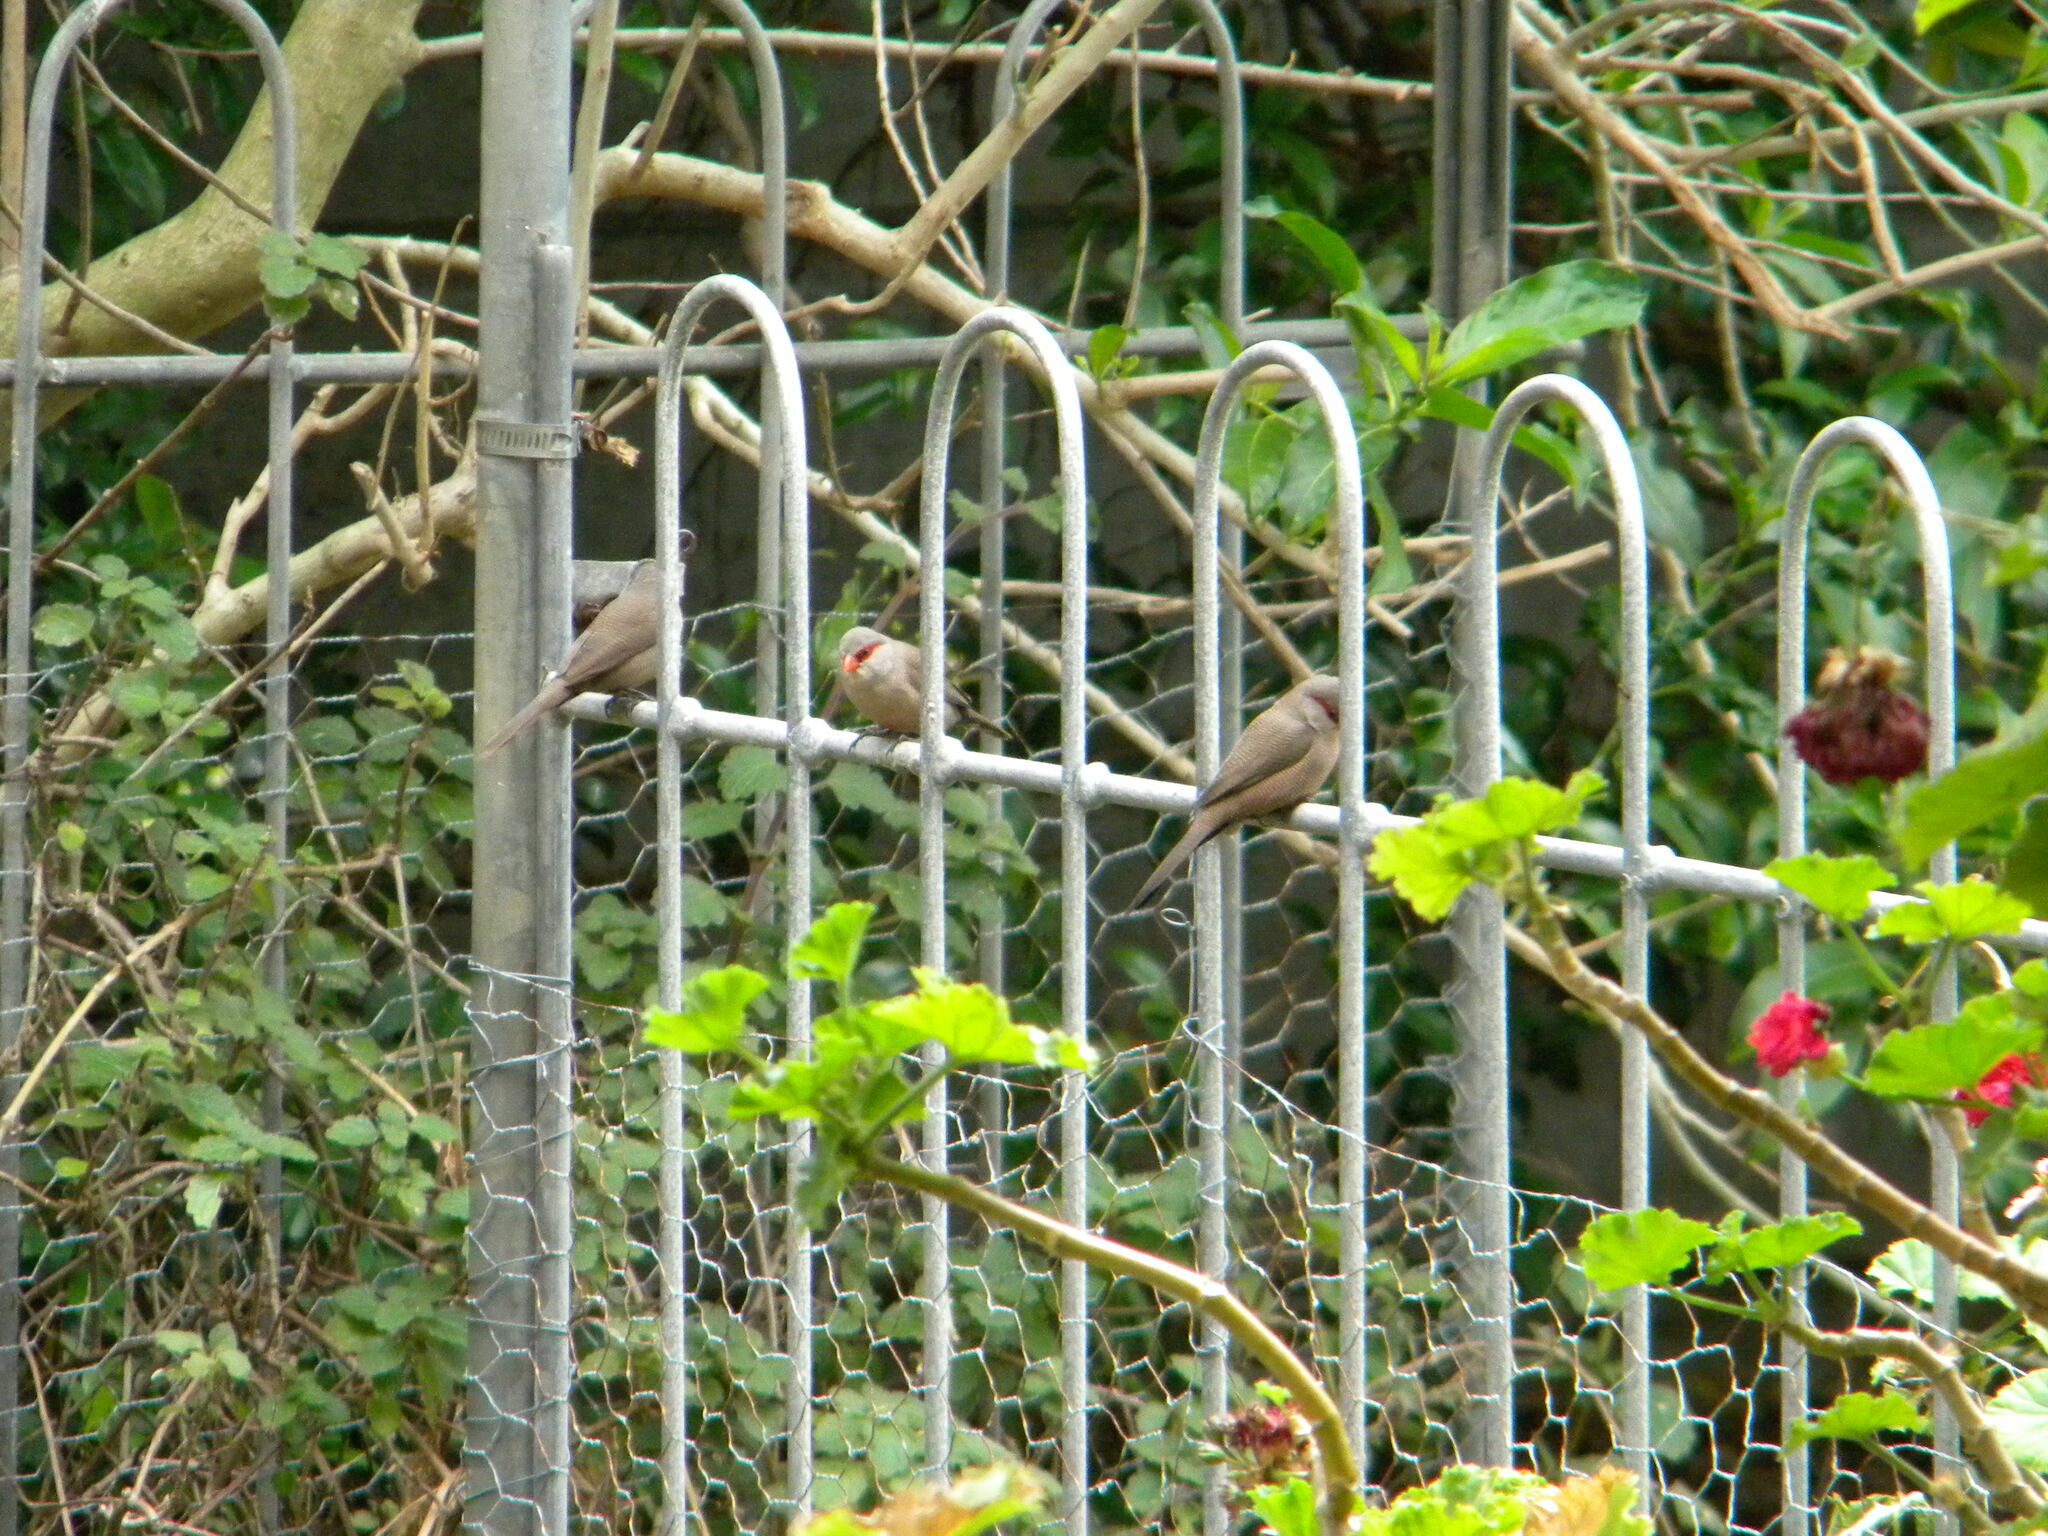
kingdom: Animalia
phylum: Chordata
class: Aves
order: Passeriformes
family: Estrildidae
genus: Estrilda
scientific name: Estrilda astrild
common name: Common waxbill
